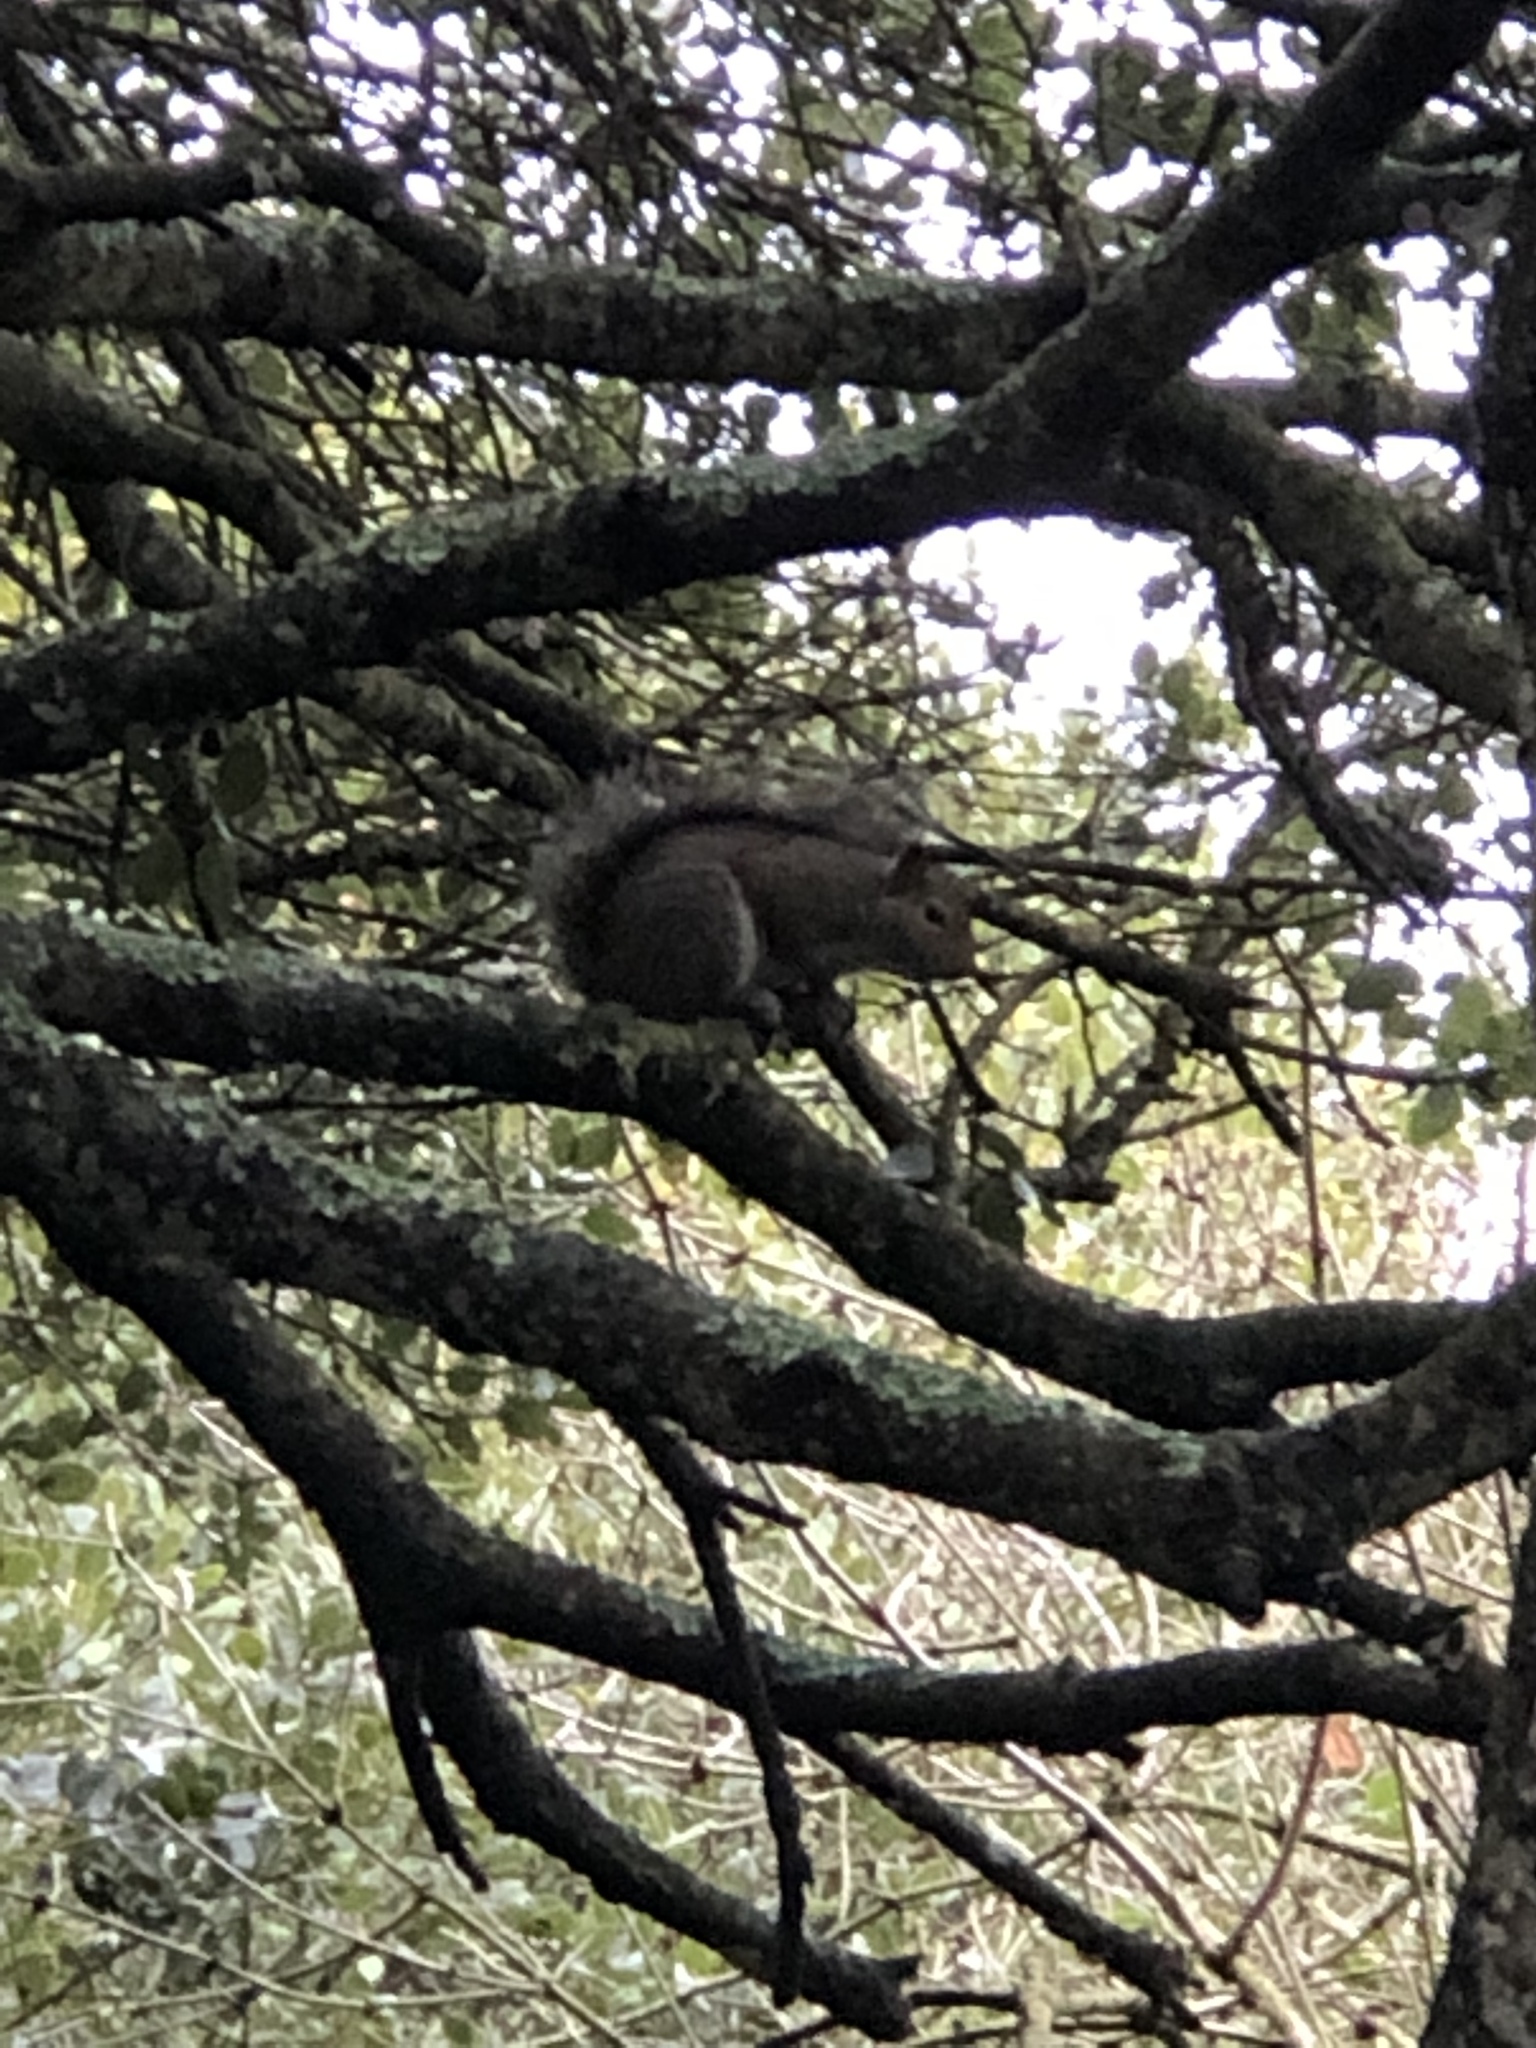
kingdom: Animalia
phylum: Chordata
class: Mammalia
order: Rodentia
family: Sciuridae
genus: Sciurus
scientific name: Sciurus carolinensis
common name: Eastern gray squirrel
